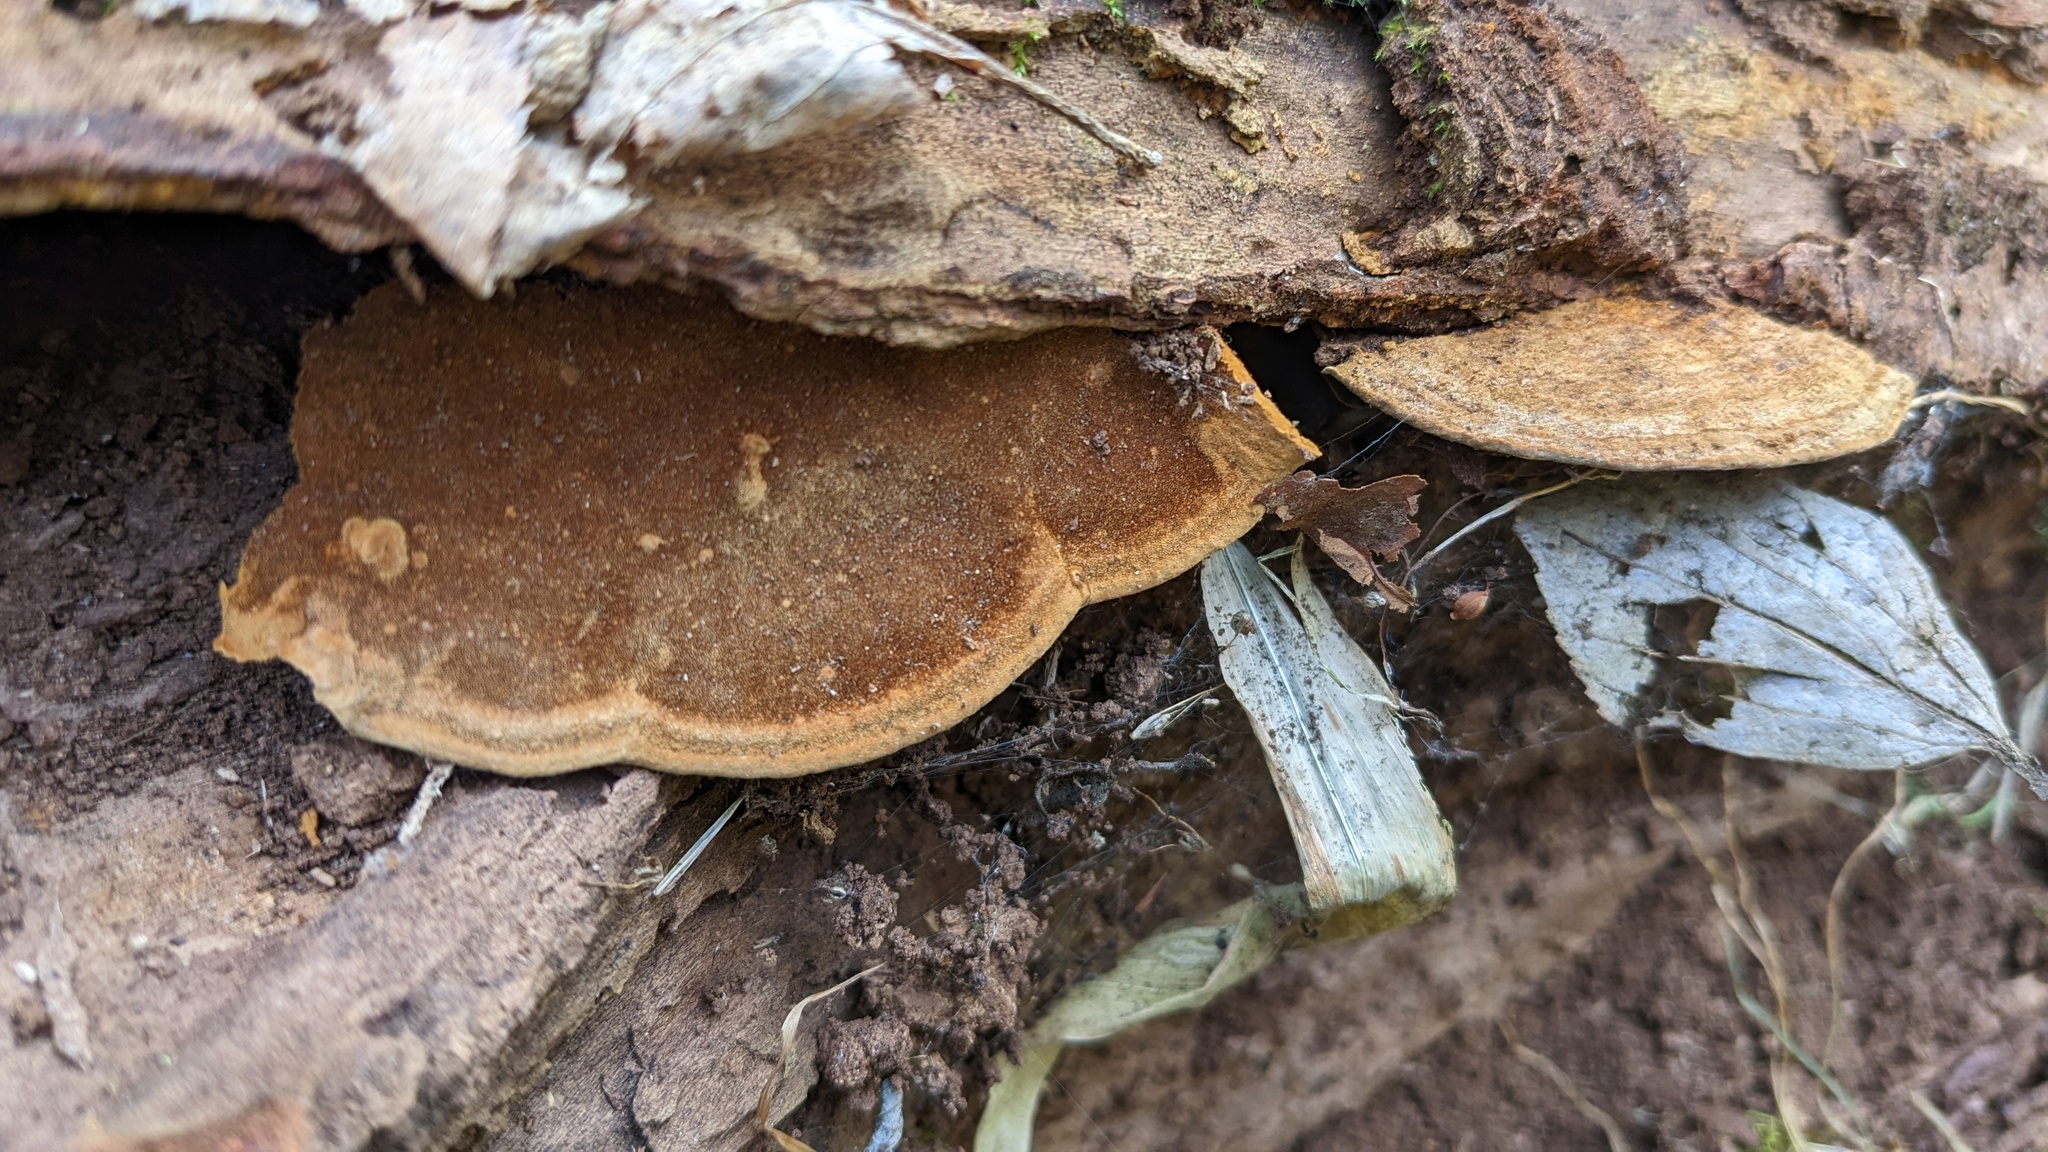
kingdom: Fungi
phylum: Basidiomycota
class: Agaricomycetes
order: Hymenochaetales
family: Hymenochaetaceae
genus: Phellinus
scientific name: Phellinus gilvus
